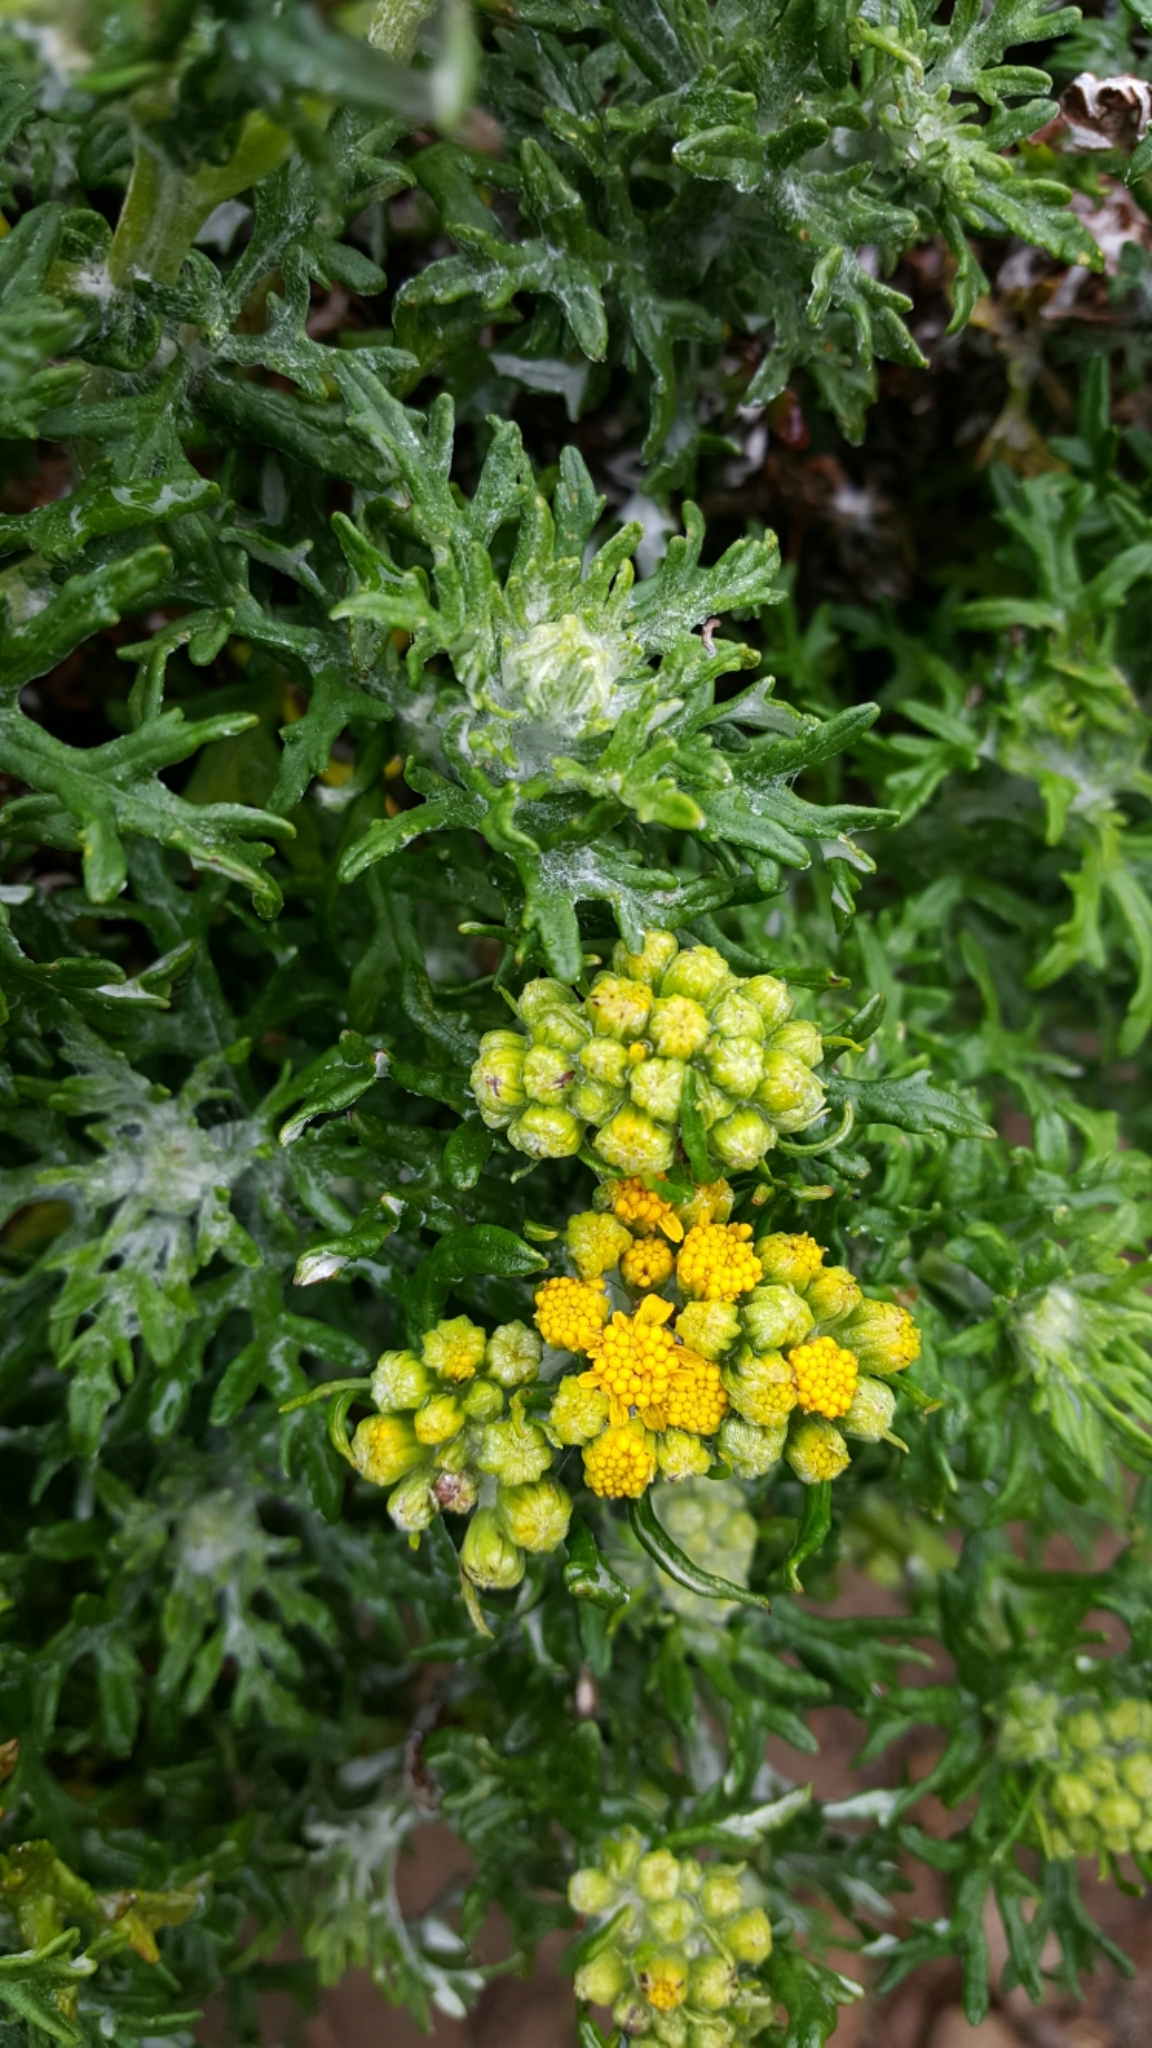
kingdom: Plantae
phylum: Tracheophyta
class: Magnoliopsida
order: Asterales
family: Asteraceae
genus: Eriophyllum
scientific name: Eriophyllum staechadifolium
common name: Lizardtail
